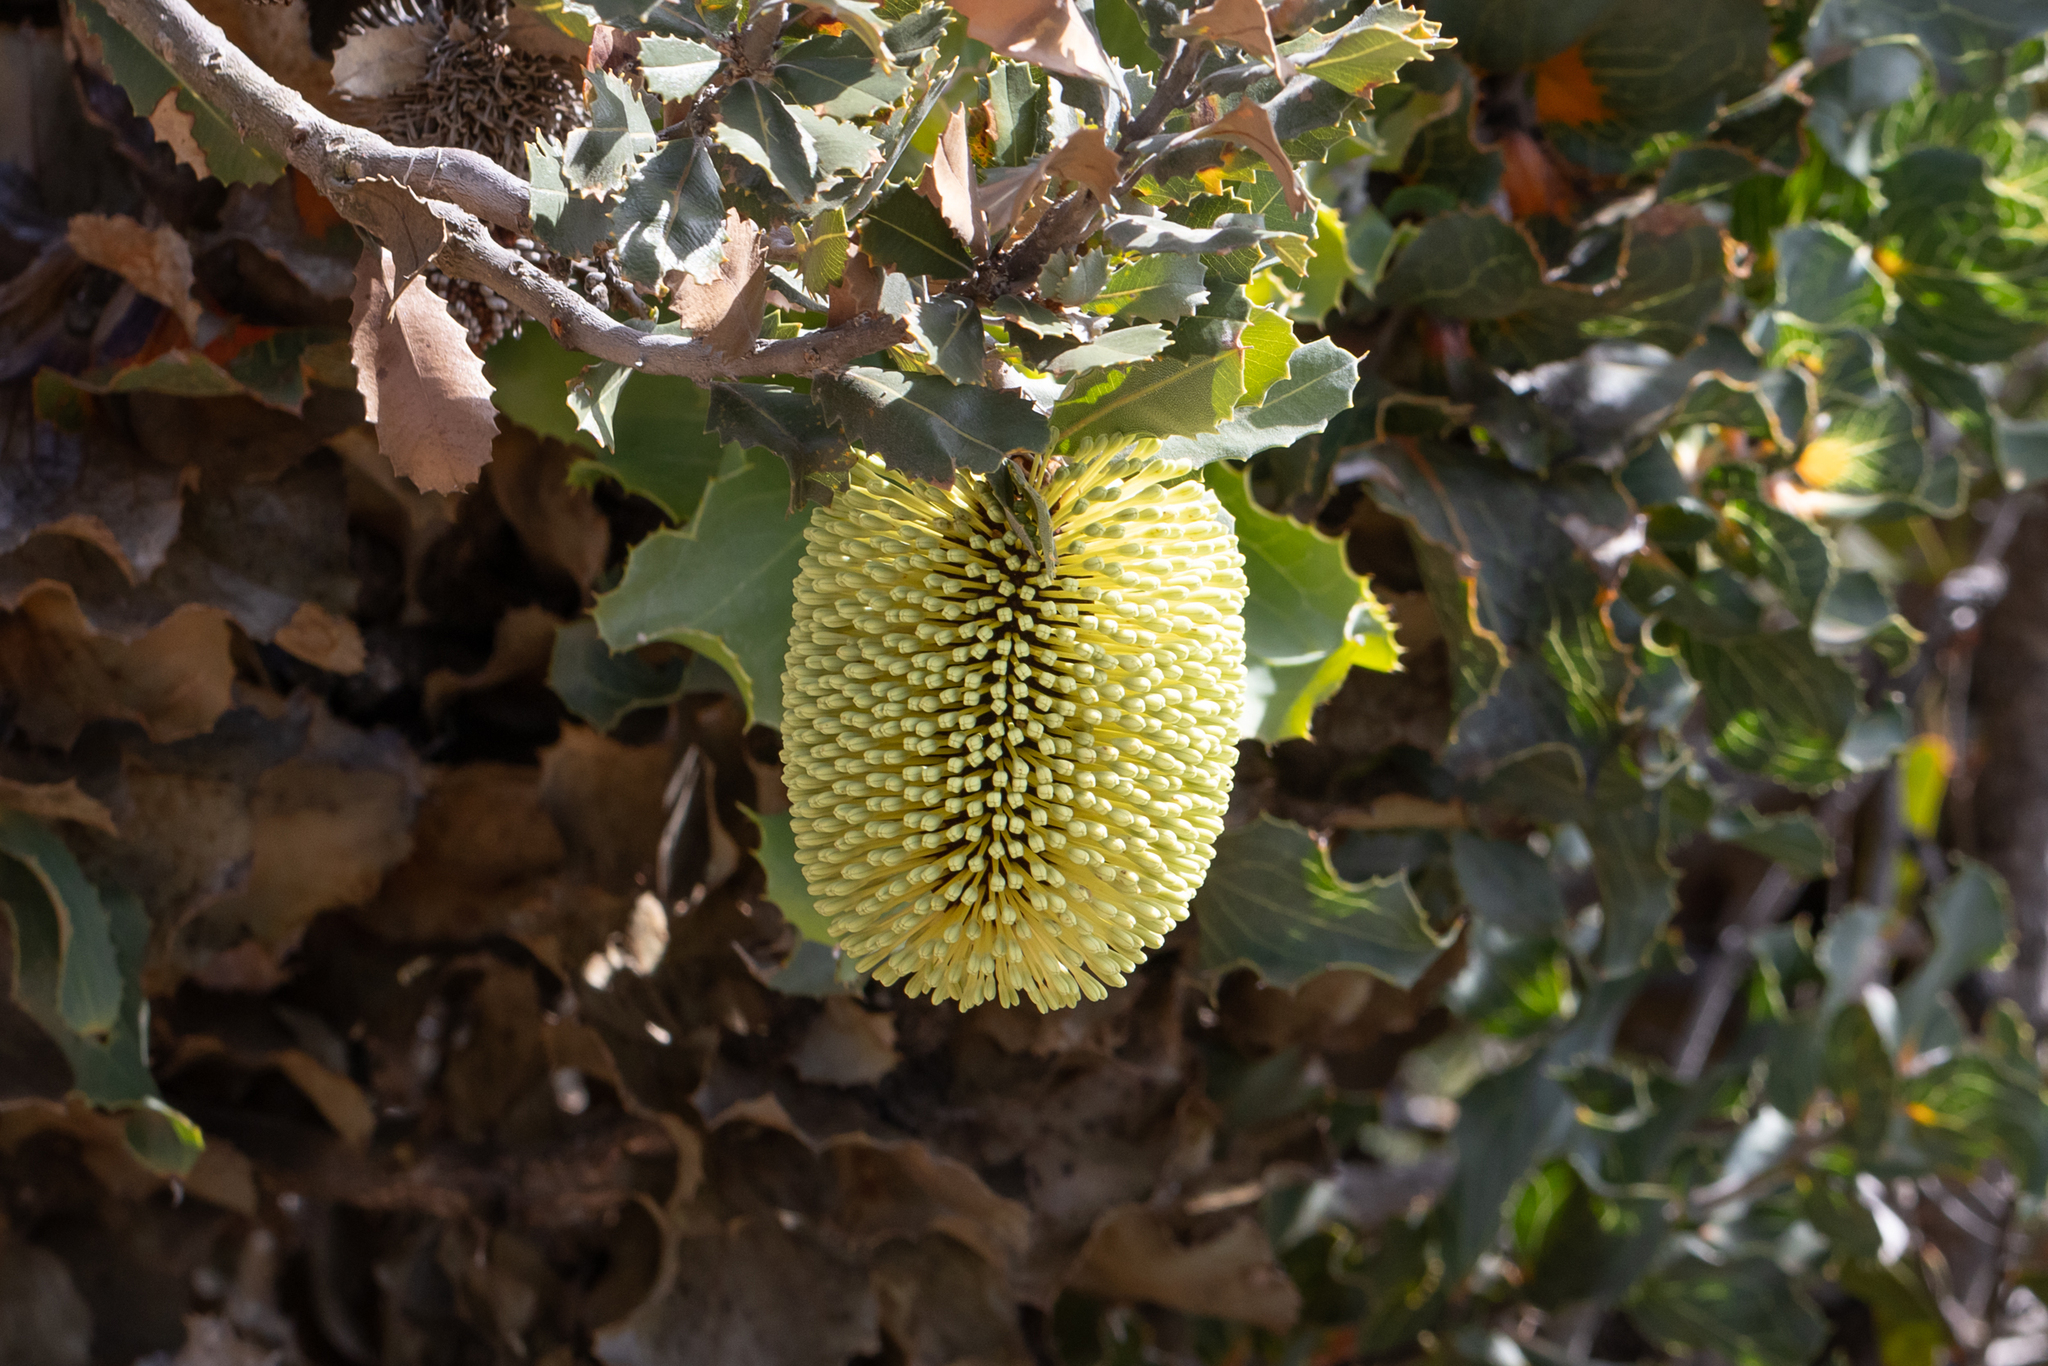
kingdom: Plantae
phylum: Tracheophyta
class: Magnoliopsida
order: Proteales
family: Proteaceae
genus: Banksia
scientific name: Banksia lemanniana
